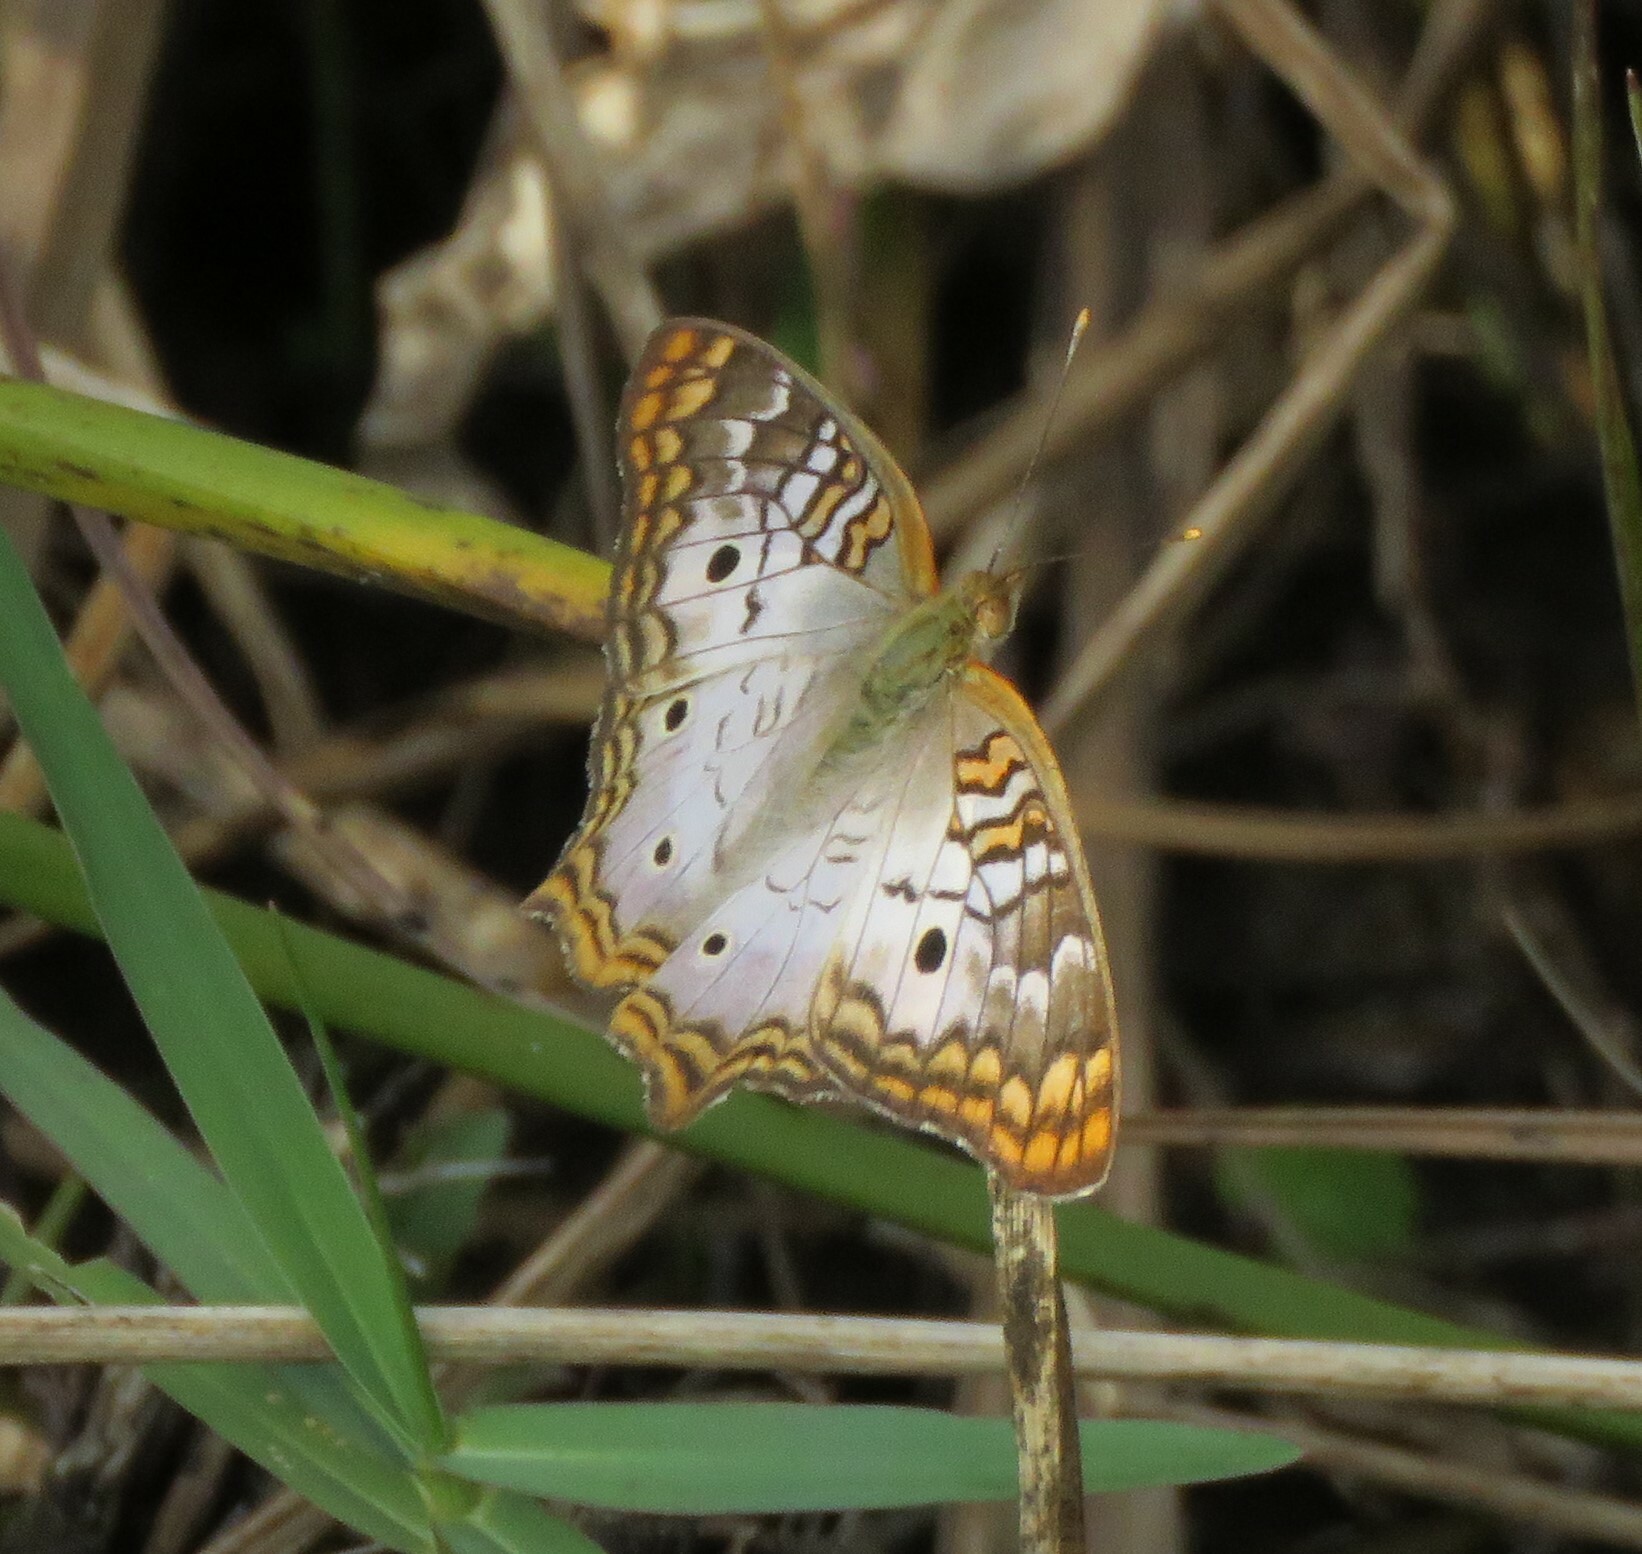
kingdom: Animalia
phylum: Arthropoda
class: Insecta
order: Lepidoptera
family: Nymphalidae
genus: Anartia
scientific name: Anartia jatrophae
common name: White peacock
